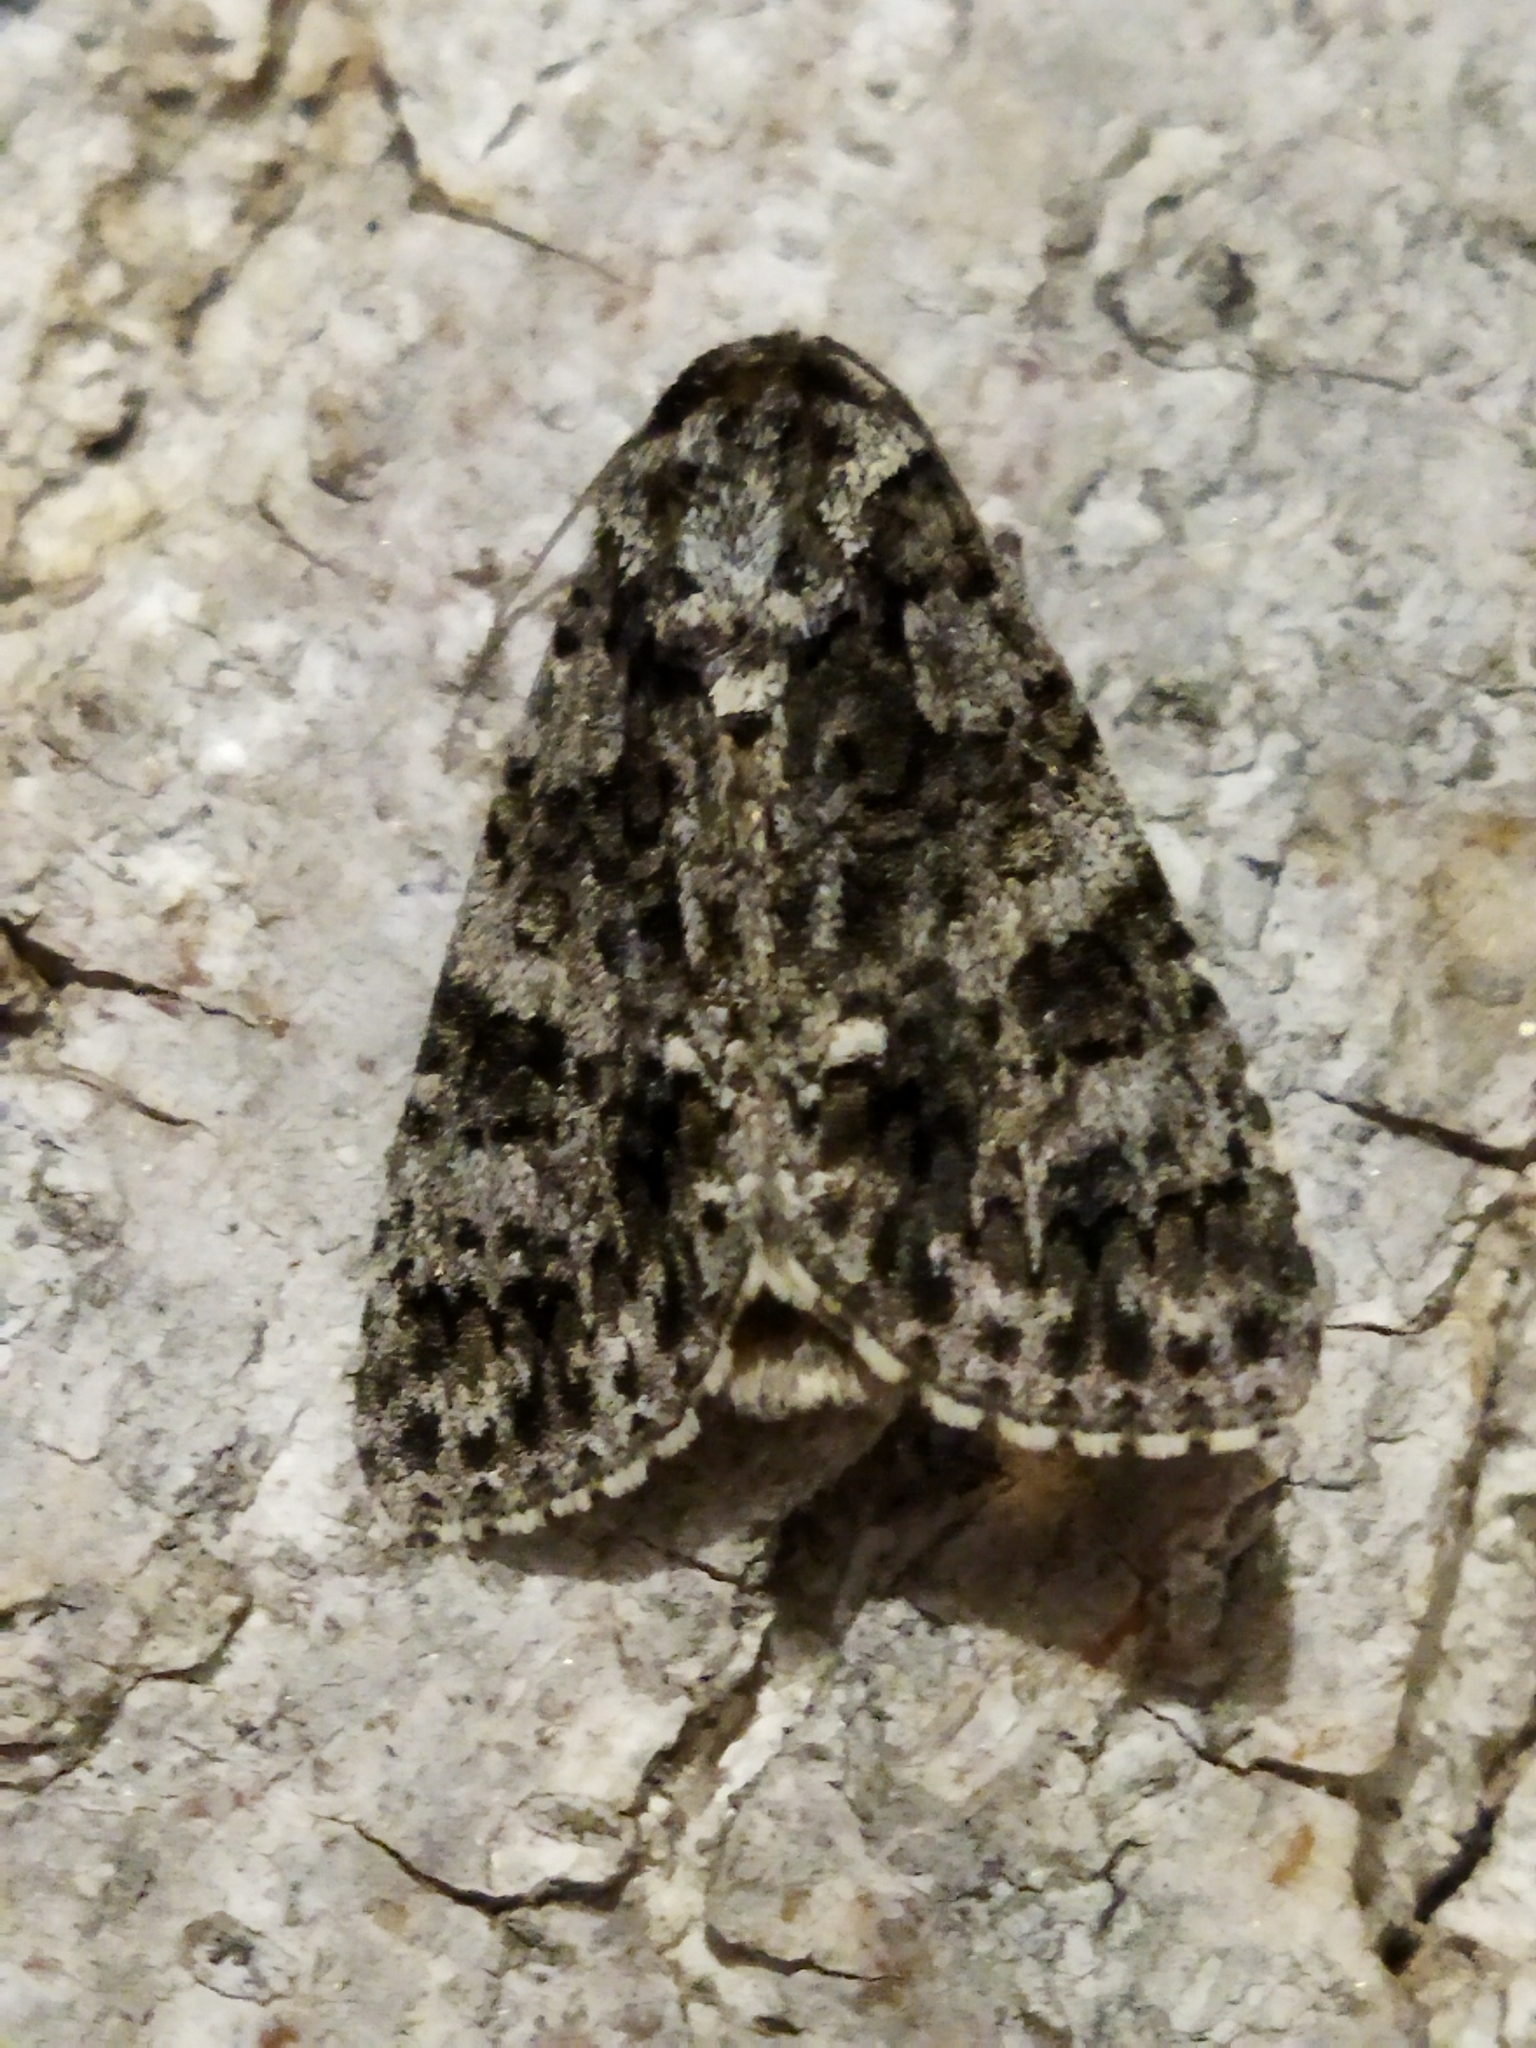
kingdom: Animalia
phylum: Arthropoda
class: Insecta
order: Lepidoptera
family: Noctuidae
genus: Acronicta
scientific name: Acronicta rumicis
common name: Knot grass
